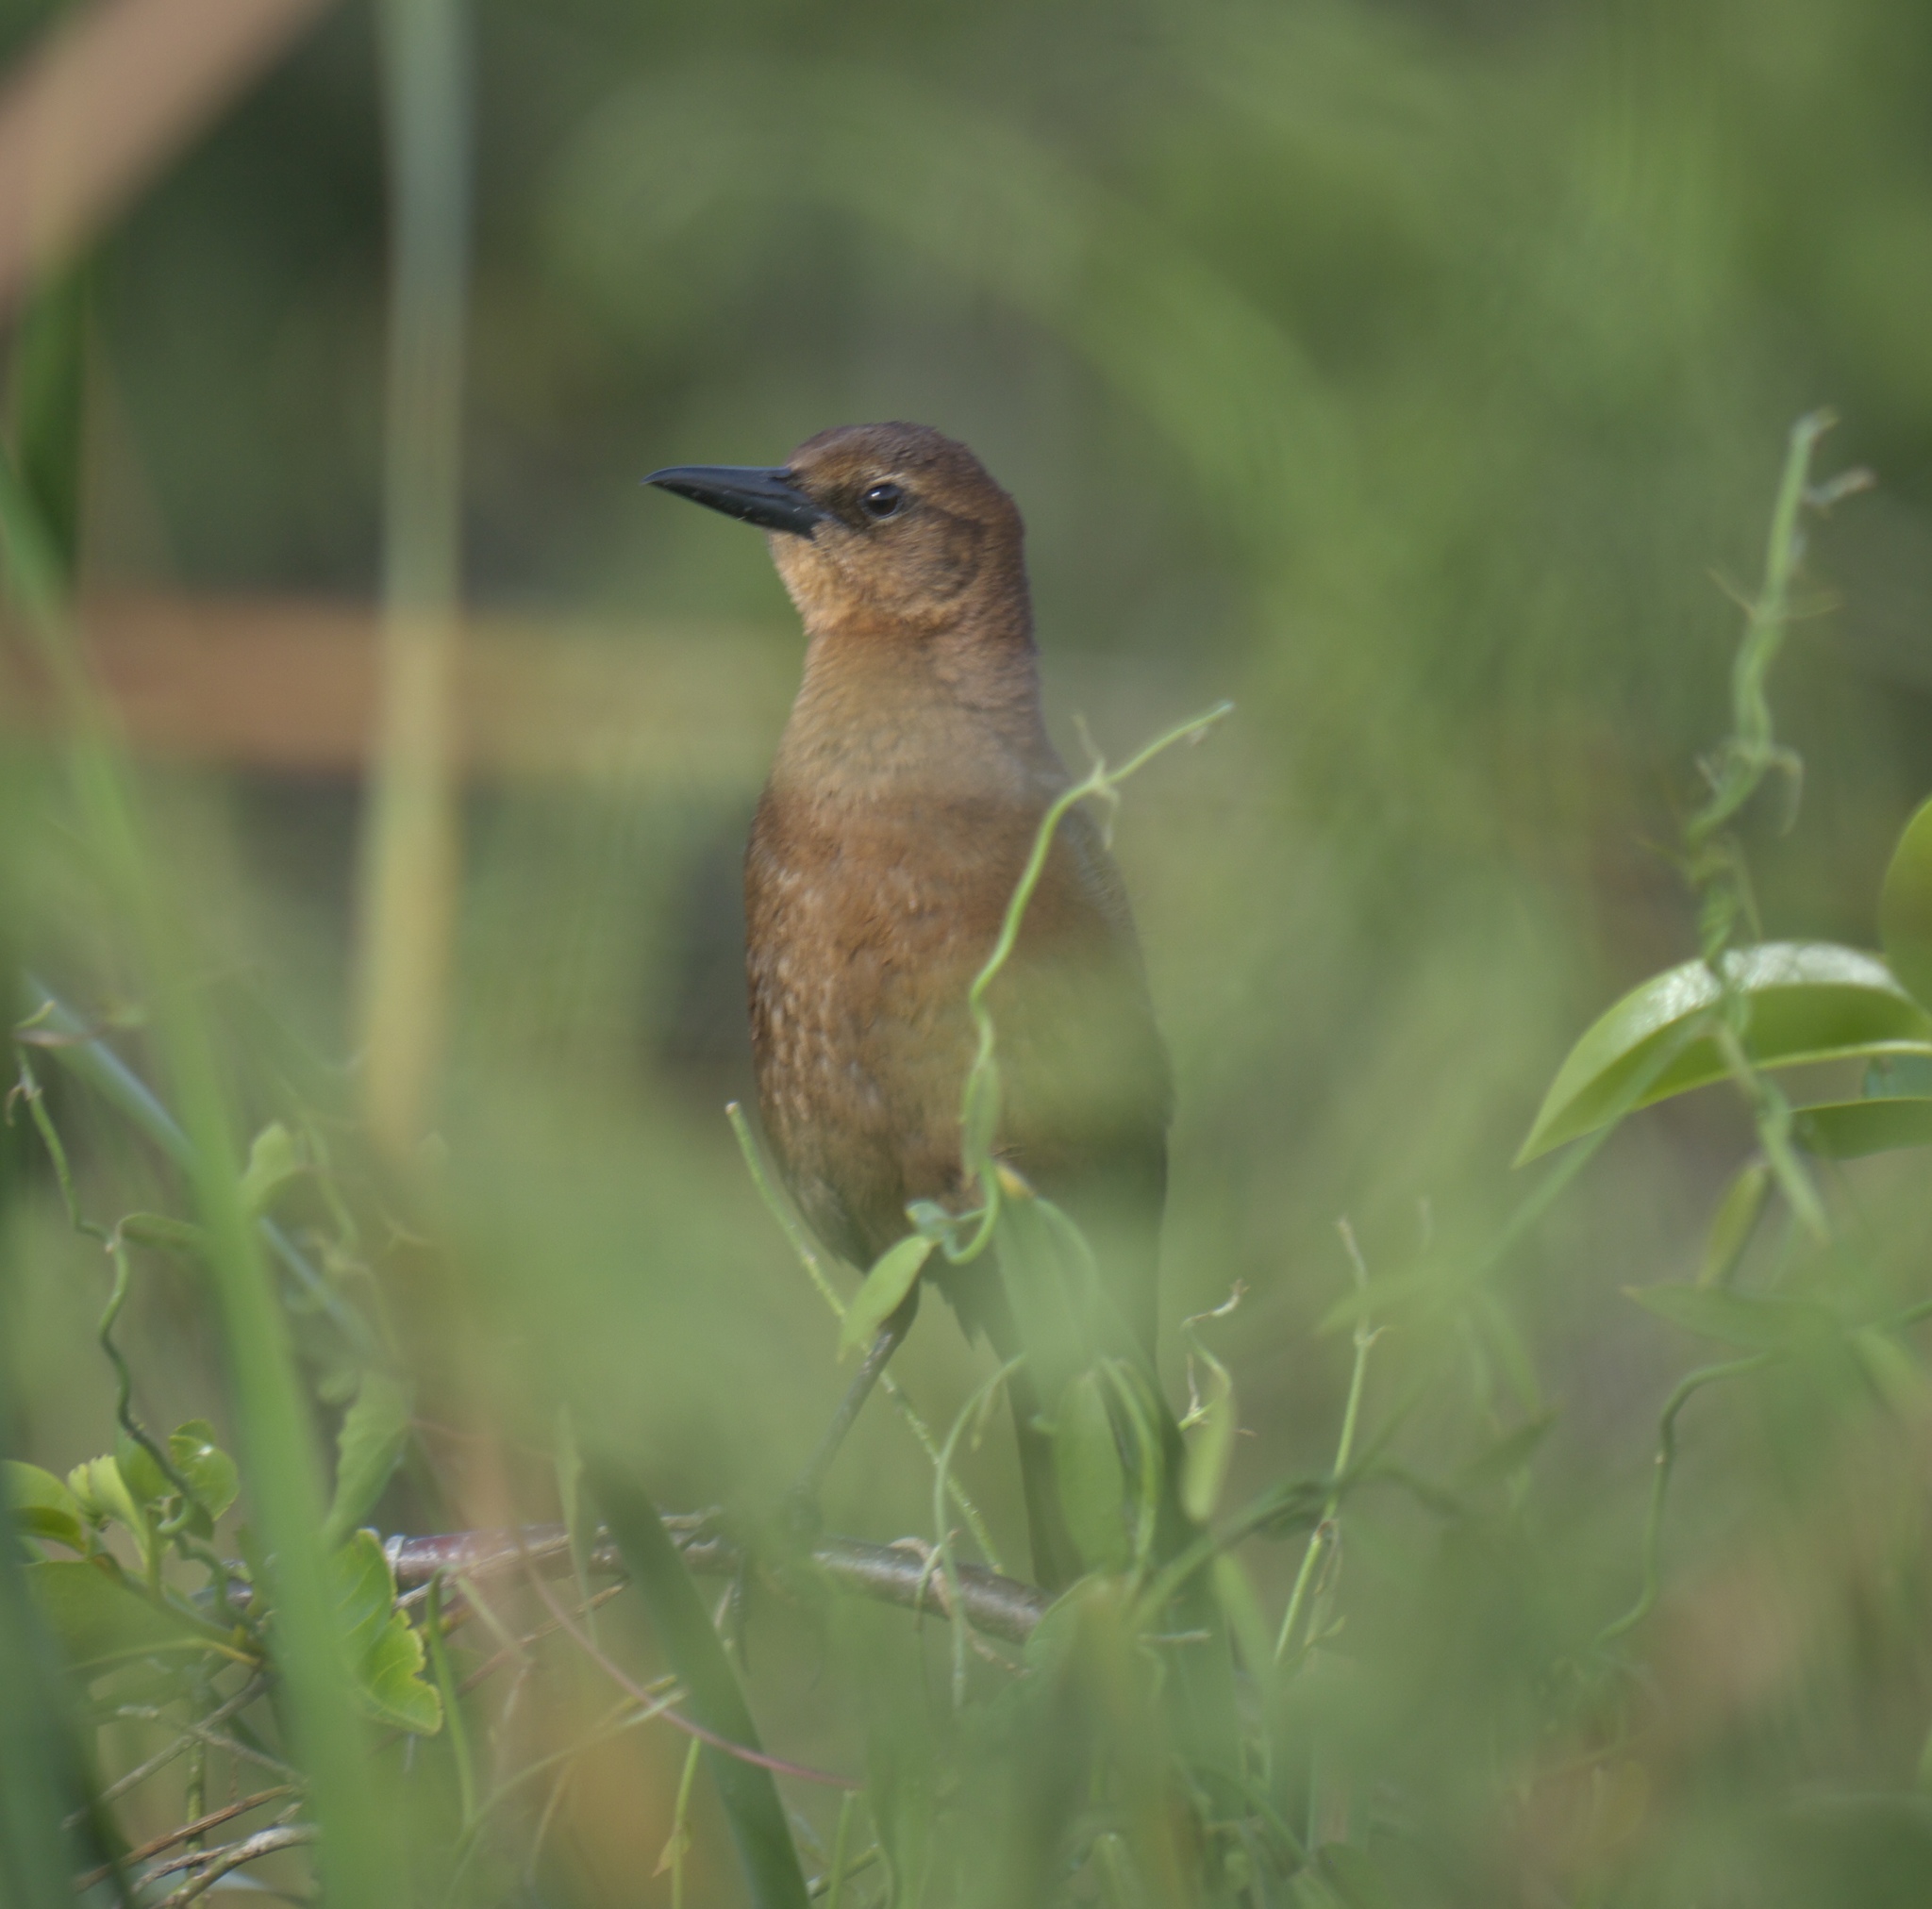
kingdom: Animalia
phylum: Chordata
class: Aves
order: Passeriformes
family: Icteridae
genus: Quiscalus
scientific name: Quiscalus major
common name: Boat-tailed grackle
